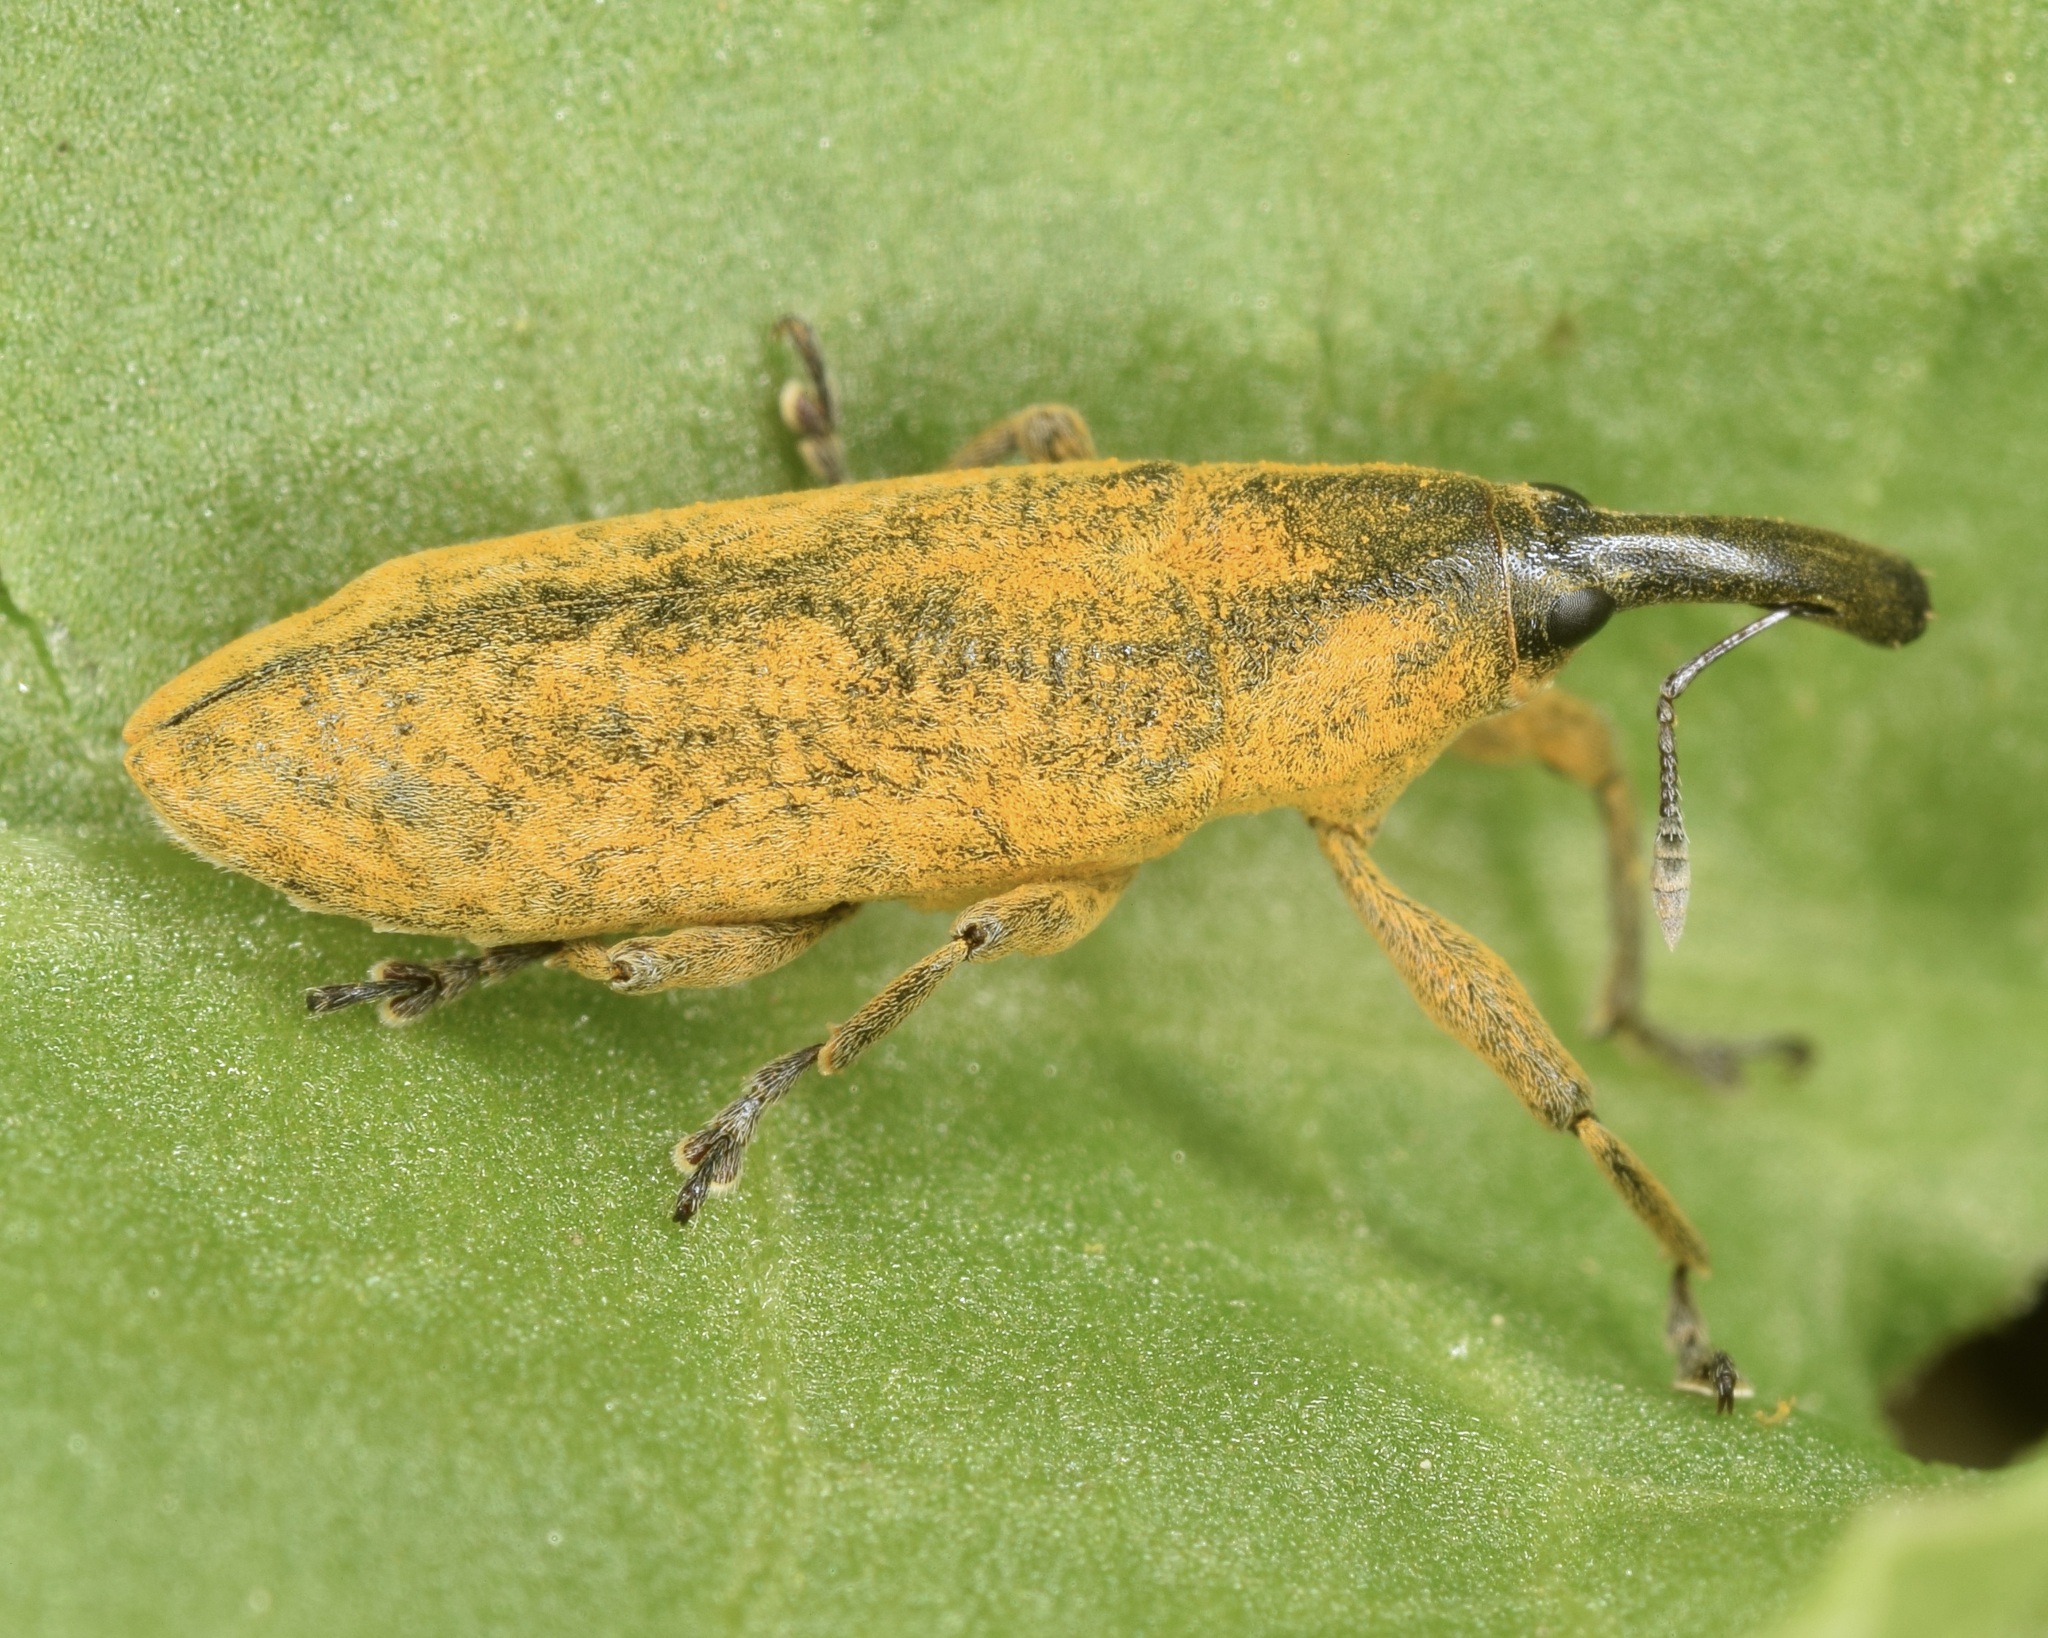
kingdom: Animalia
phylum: Arthropoda
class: Insecta
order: Coleoptera
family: Curculionidae
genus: Lixus
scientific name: Lixus concavus
